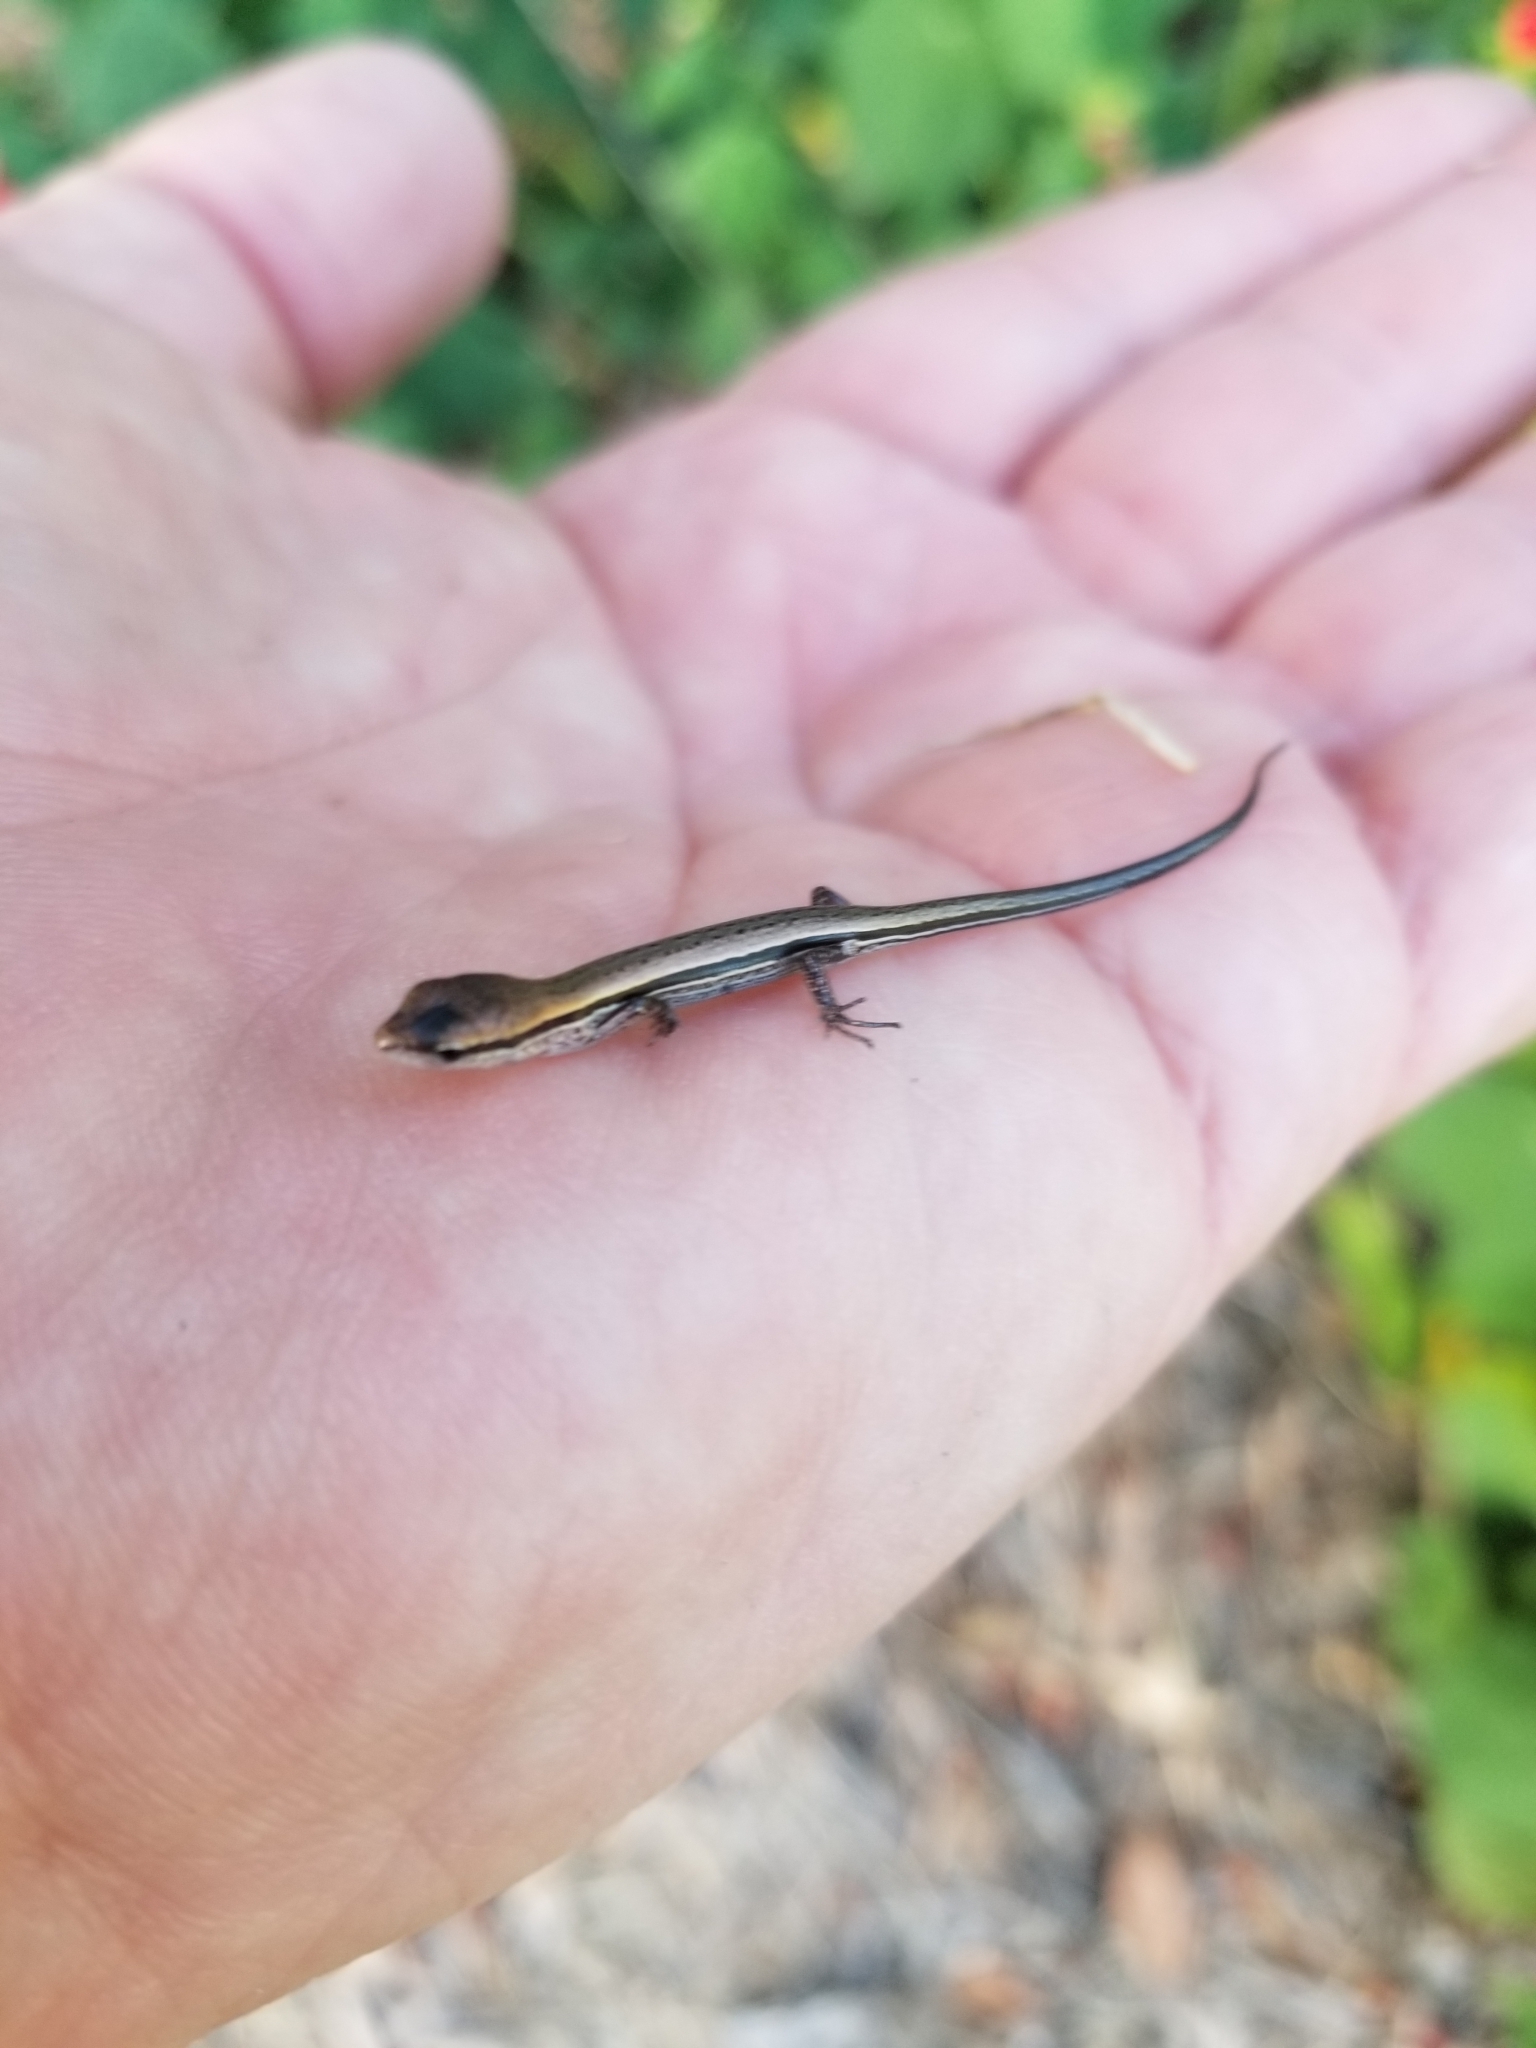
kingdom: Animalia
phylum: Chordata
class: Squamata
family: Scincidae
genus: Scincella
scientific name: Scincella lateralis
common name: Ground skink
